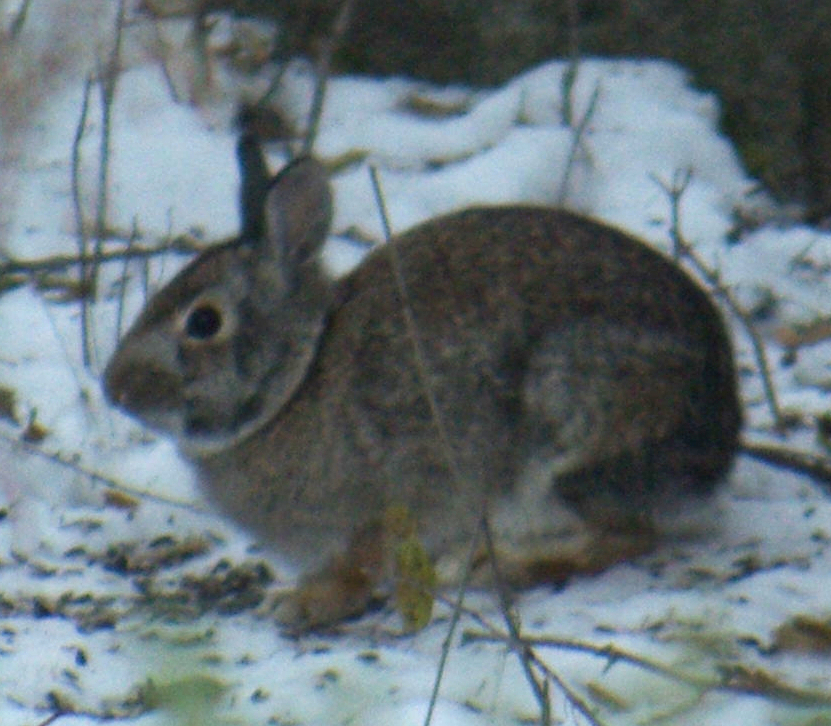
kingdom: Animalia
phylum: Chordata
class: Mammalia
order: Lagomorpha
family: Leporidae
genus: Sylvilagus
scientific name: Sylvilagus floridanus
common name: Eastern cottontail
